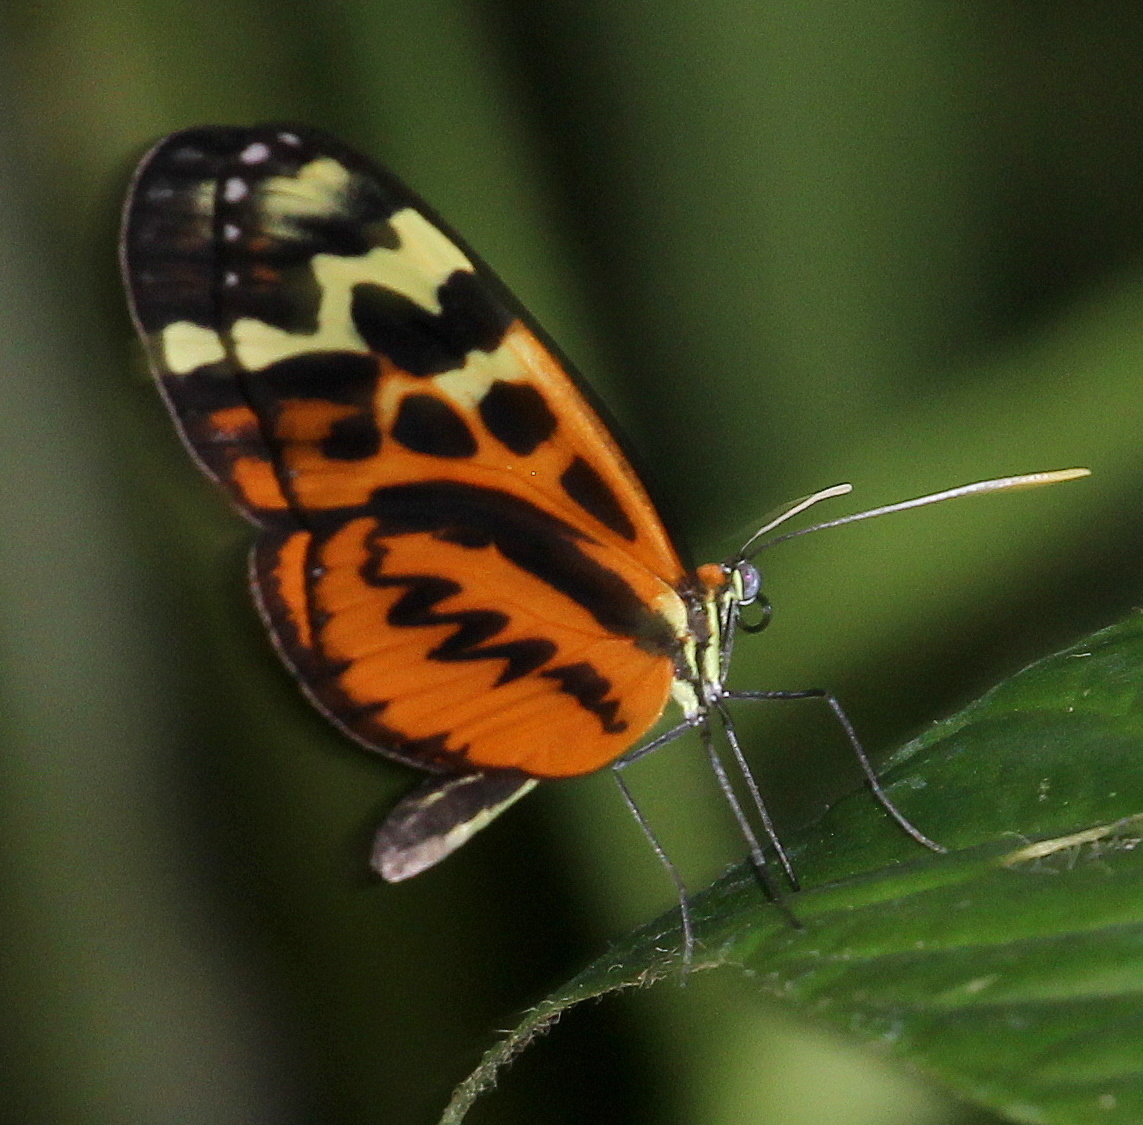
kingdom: Animalia
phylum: Arthropoda
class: Insecta
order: Lepidoptera
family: Nymphalidae
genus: Forbestra
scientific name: Forbestra olivencia
